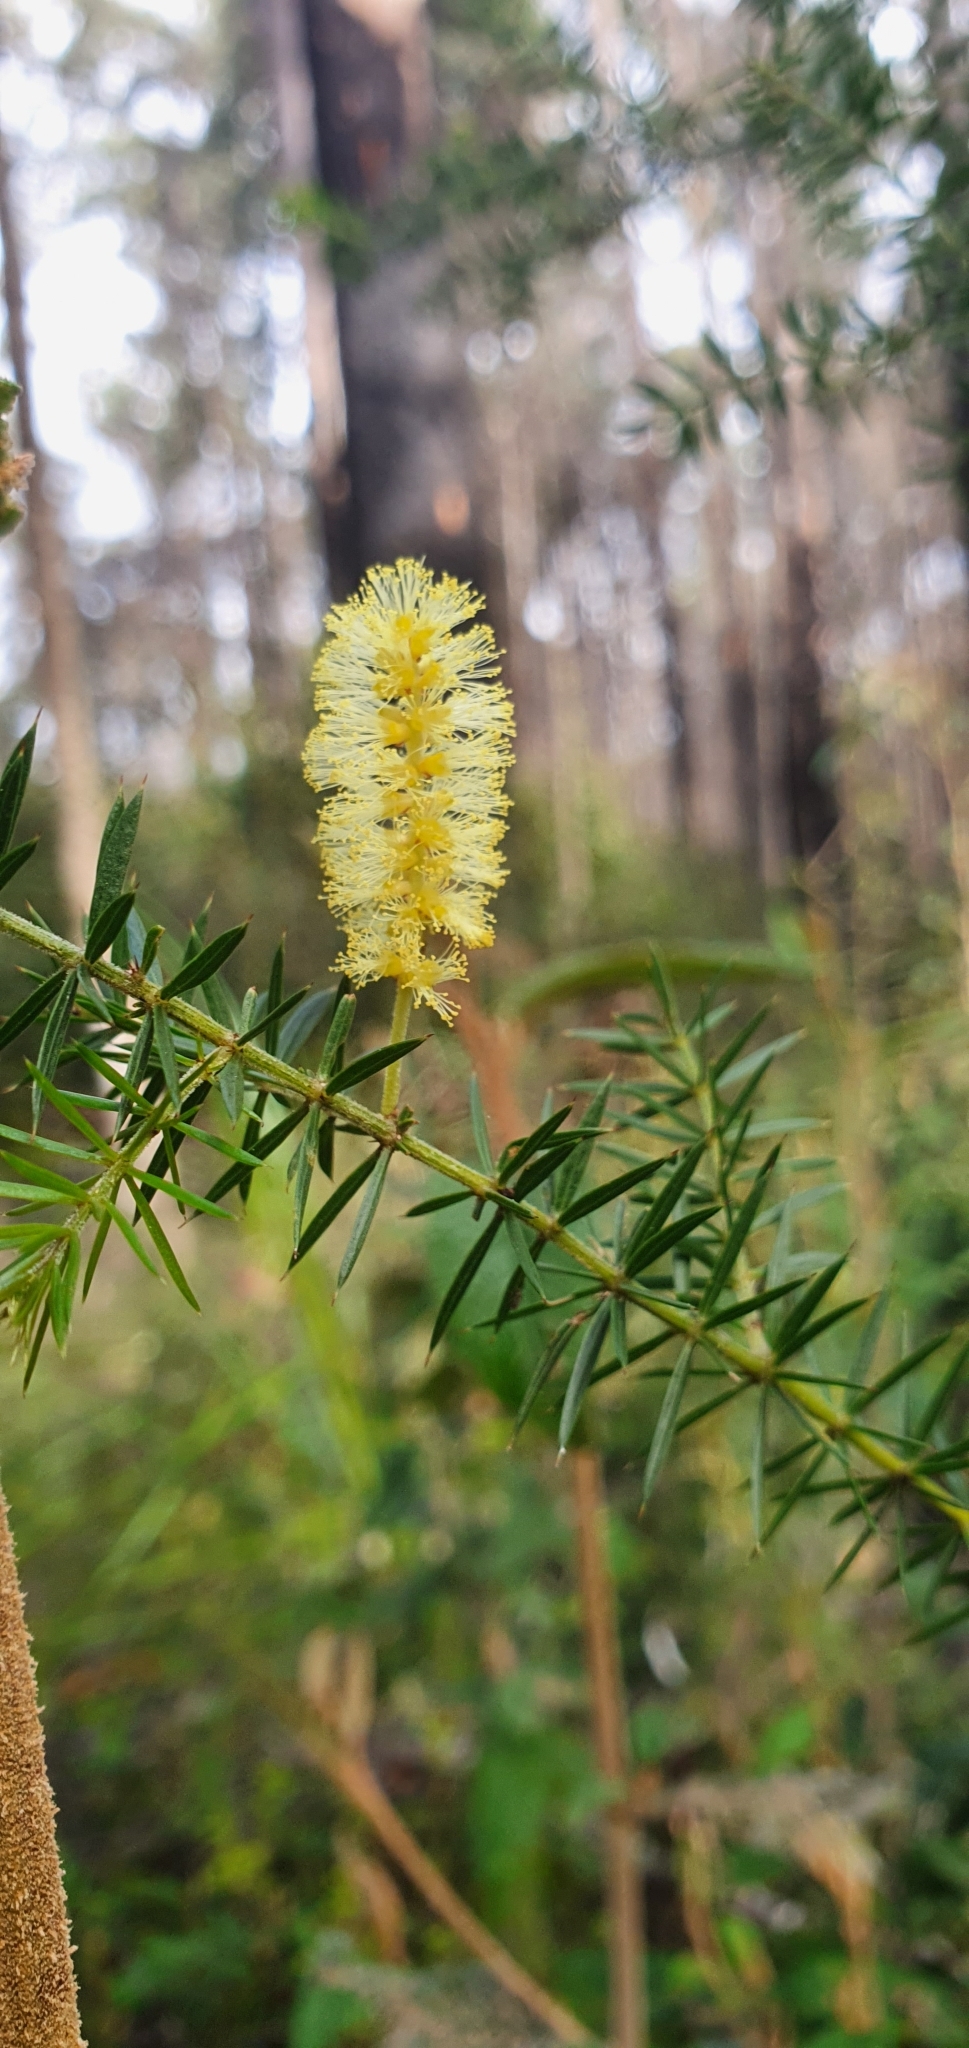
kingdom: Plantae
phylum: Tracheophyta
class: Magnoliopsida
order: Fabales
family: Fabaceae
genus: Acacia
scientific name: Acacia verticillata
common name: Prickly moses
